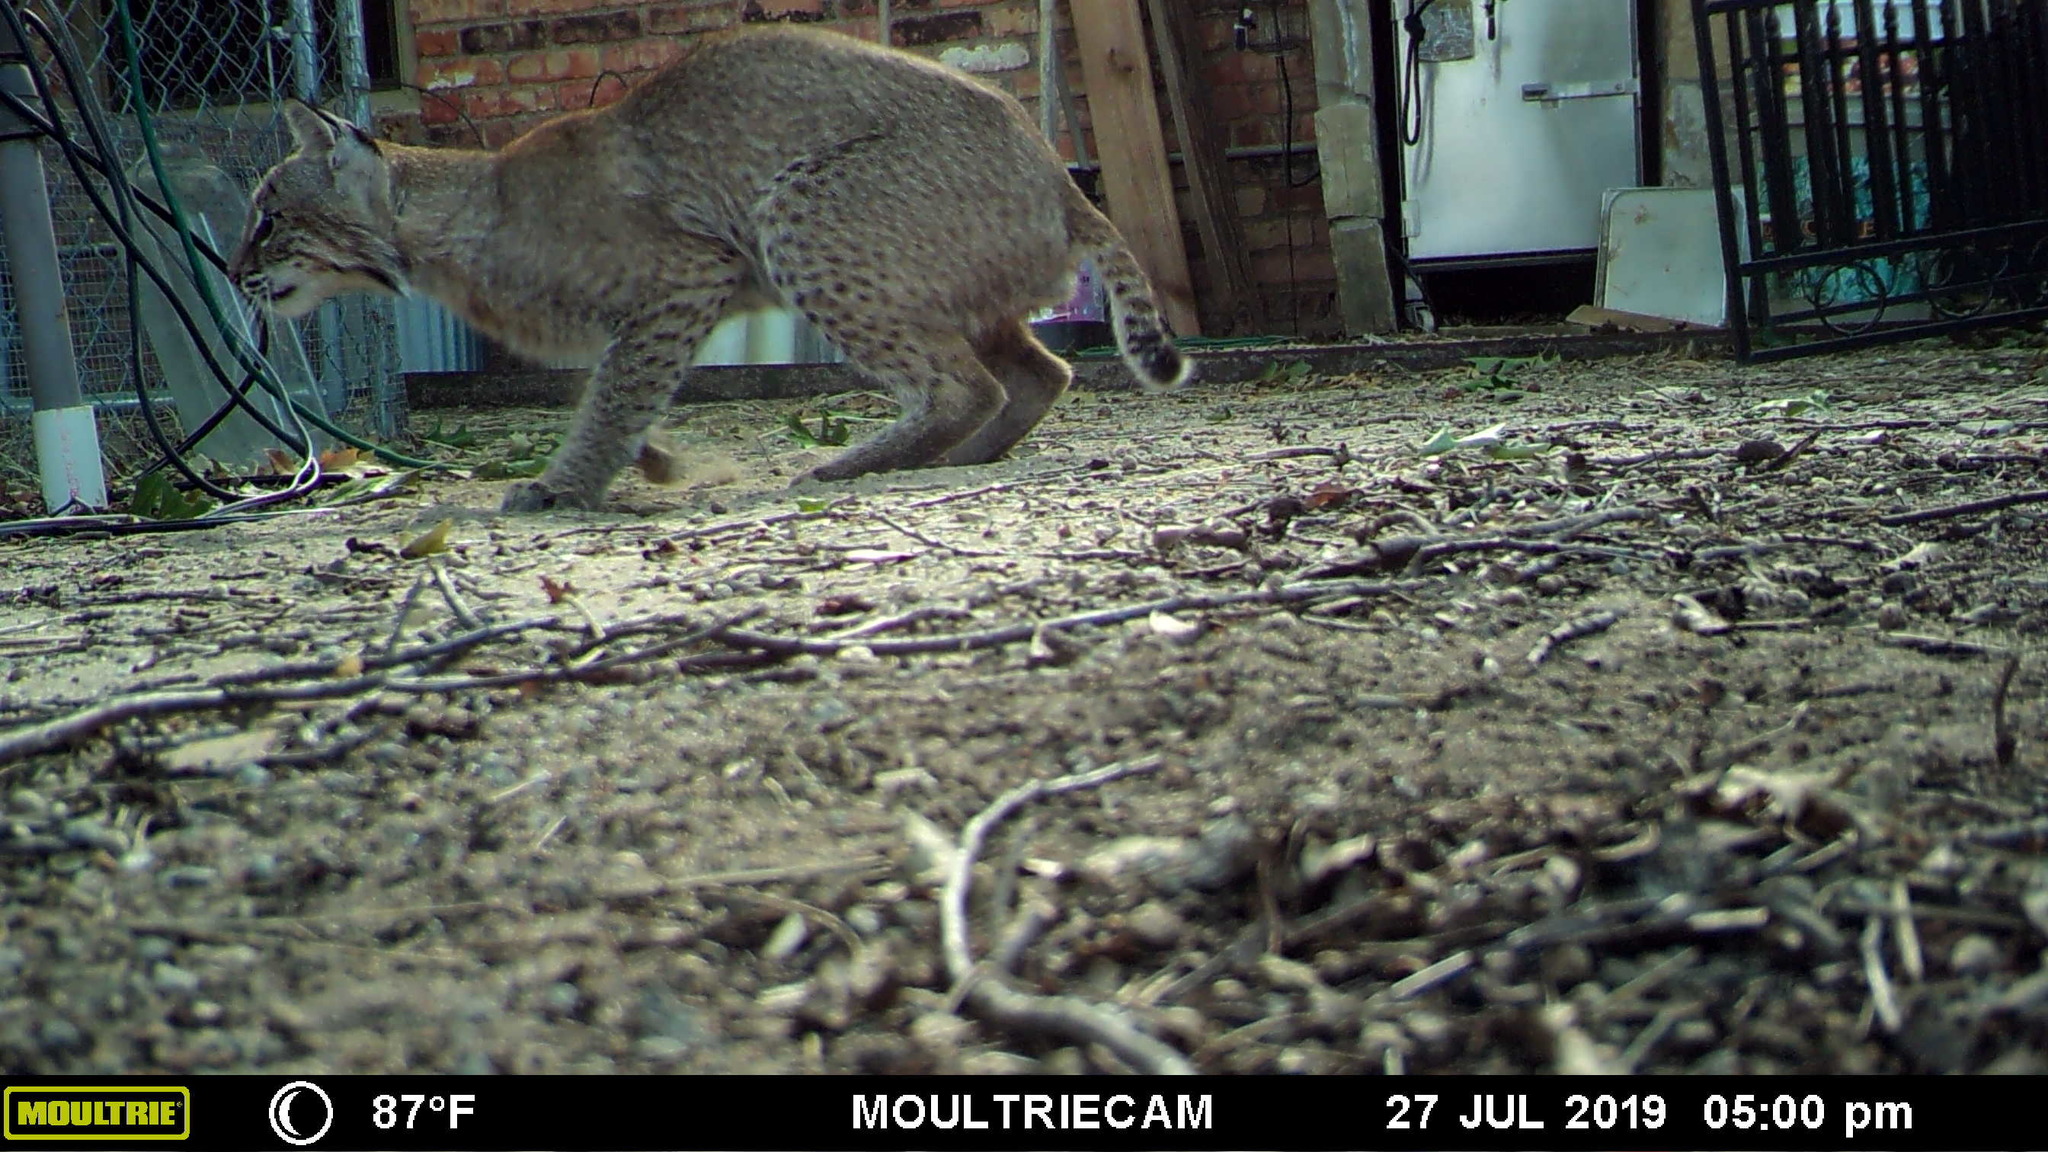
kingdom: Animalia
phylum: Chordata
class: Mammalia
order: Carnivora
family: Felidae
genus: Lynx
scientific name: Lynx rufus
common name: Bobcat
